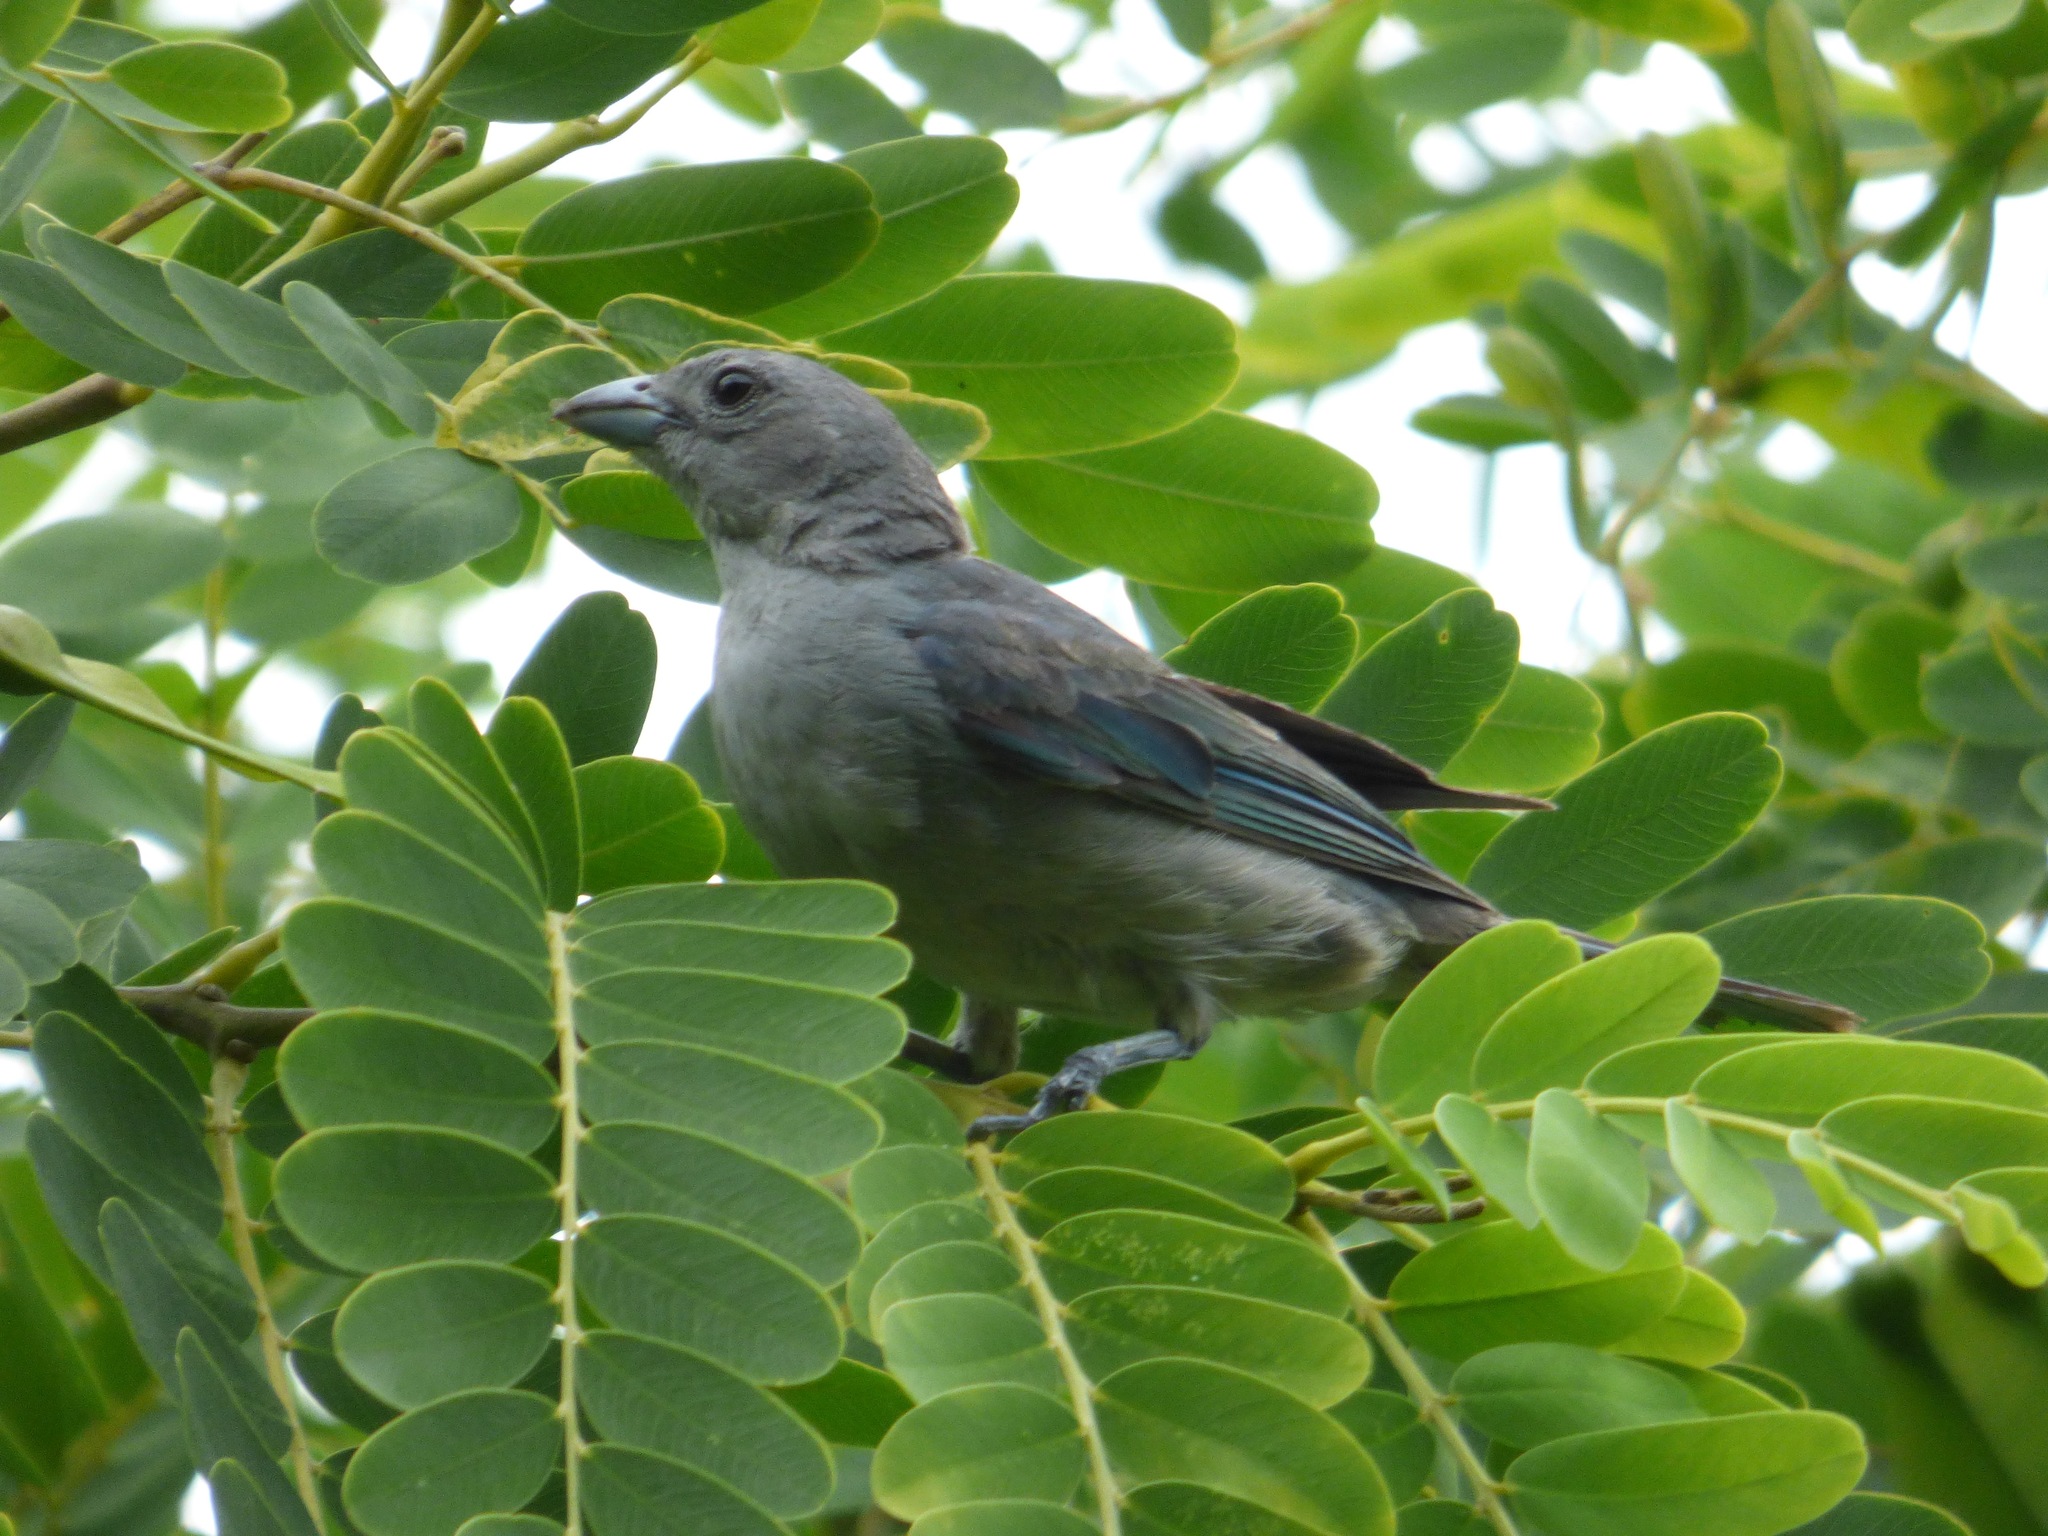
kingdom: Animalia
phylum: Chordata
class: Aves
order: Passeriformes
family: Thraupidae
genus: Thraupis
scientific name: Thraupis sayaca
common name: Sayaca tanager
